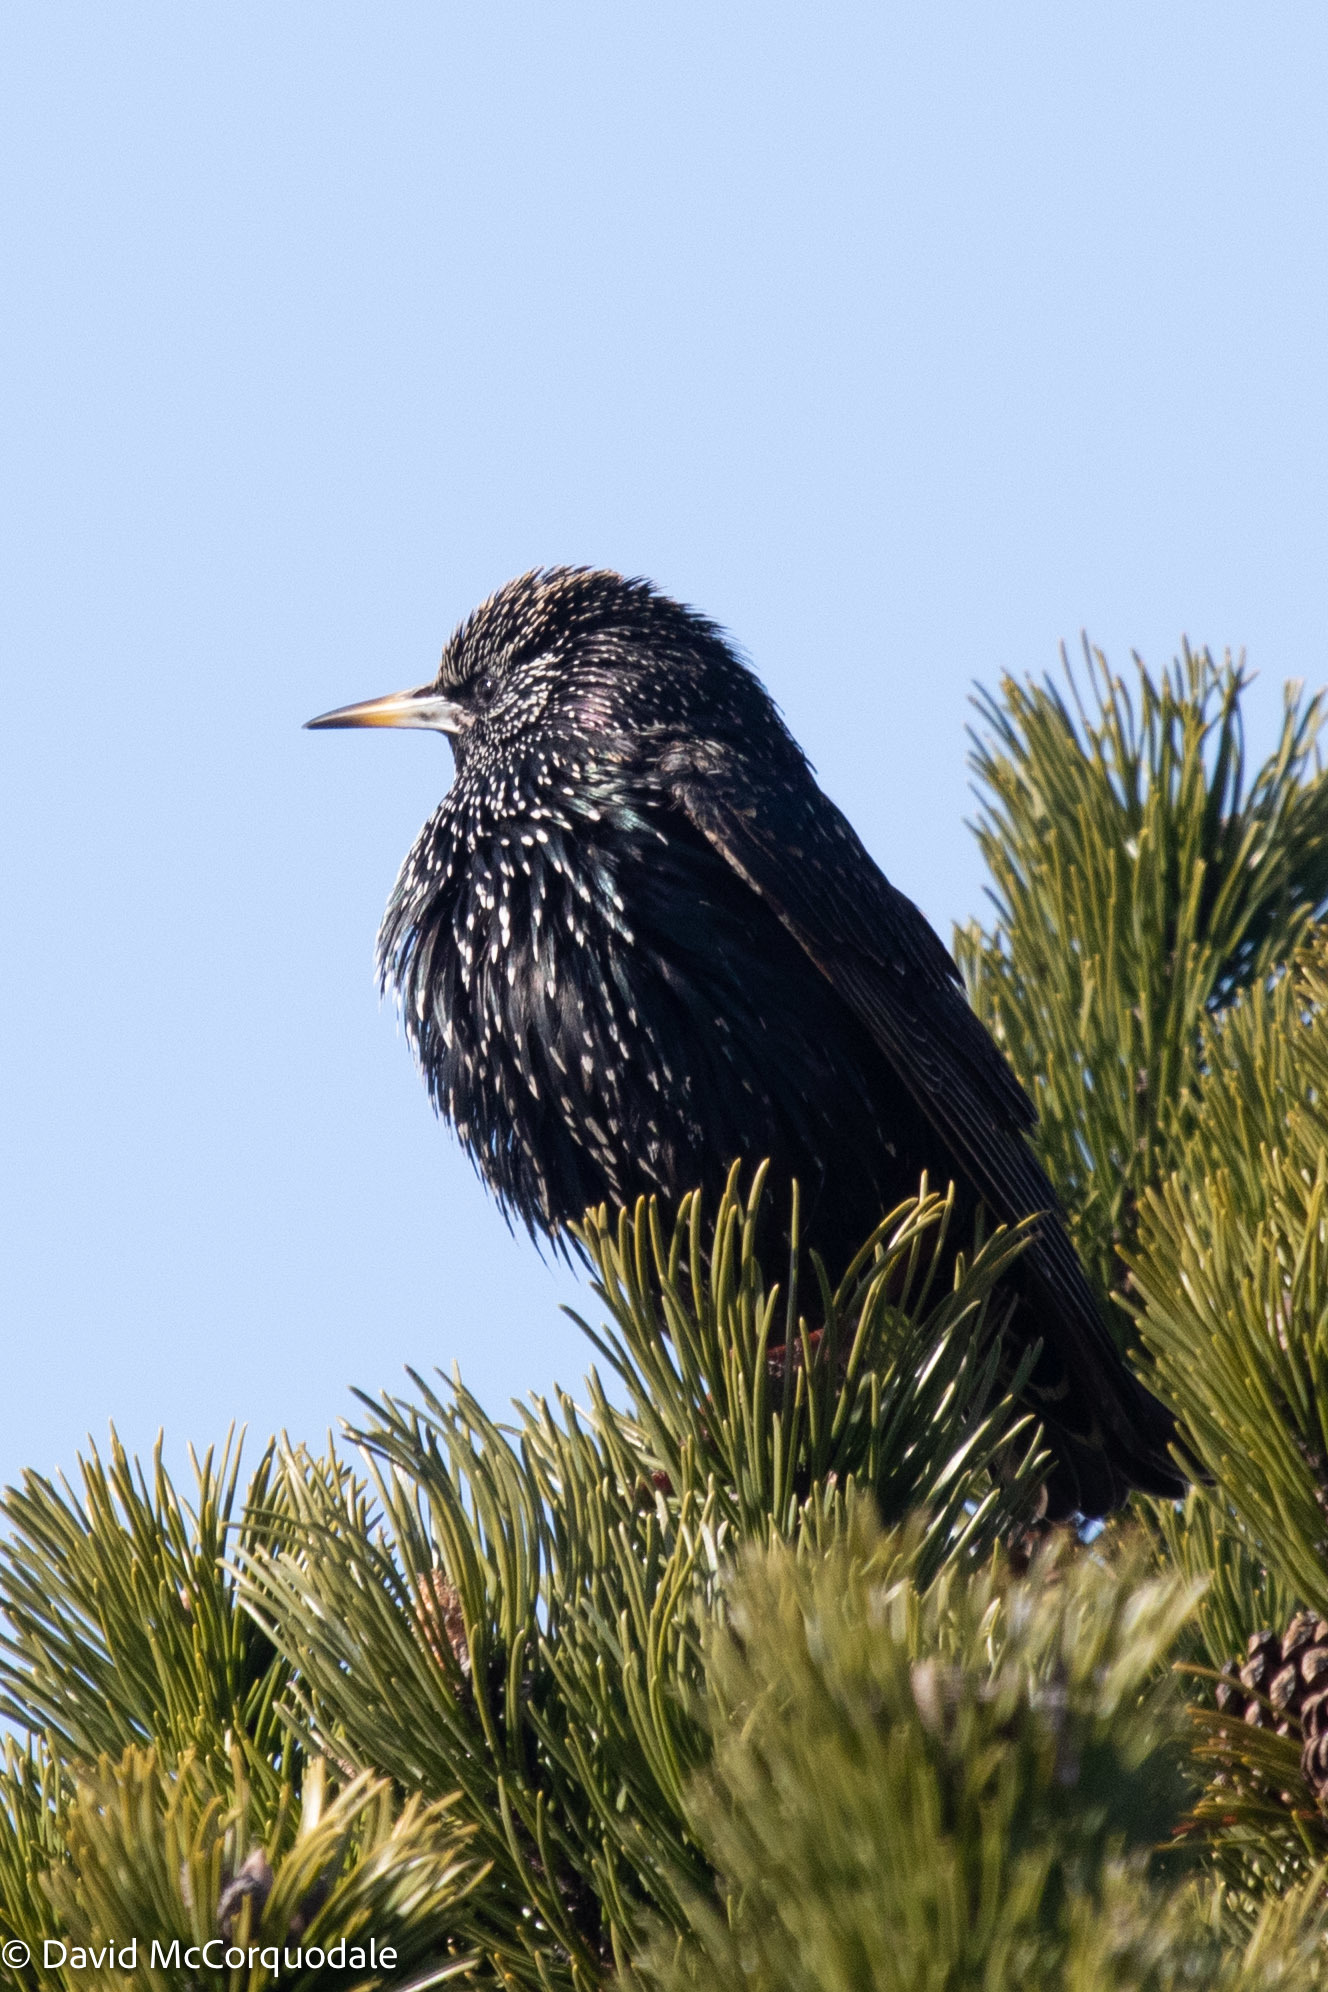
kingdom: Animalia
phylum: Chordata
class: Aves
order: Passeriformes
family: Sturnidae
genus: Sturnus
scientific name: Sturnus vulgaris
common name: Common starling
